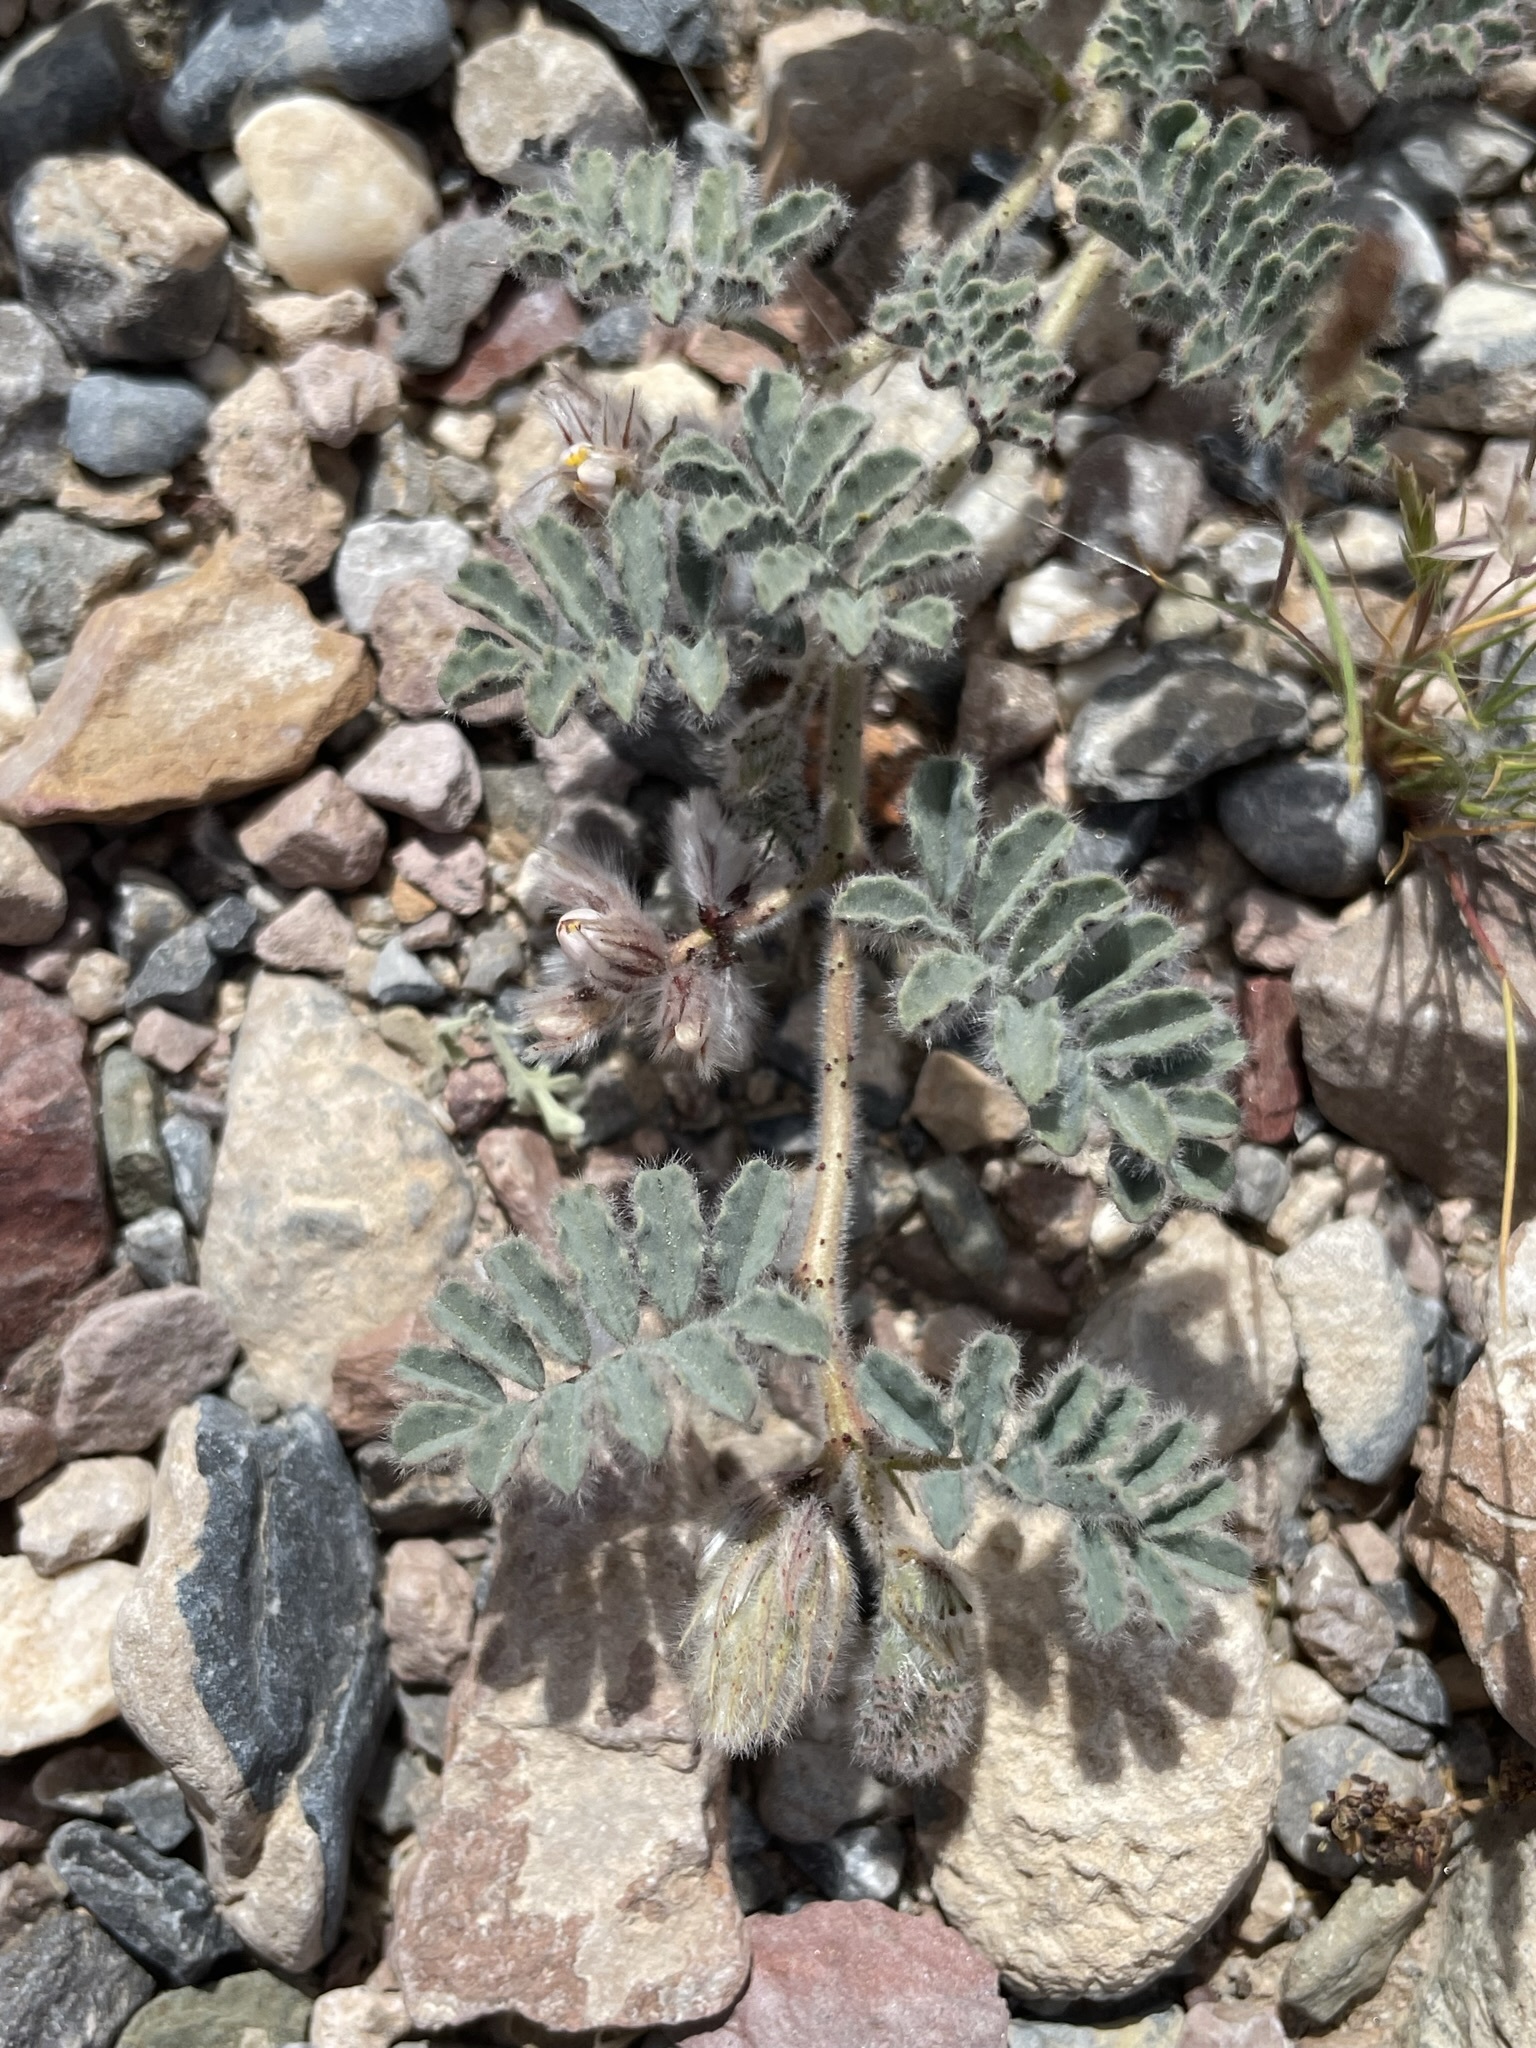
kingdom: Plantae
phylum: Tracheophyta
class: Magnoliopsida
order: Fabales
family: Fabaceae
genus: Dalea
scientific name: Dalea mollissima
